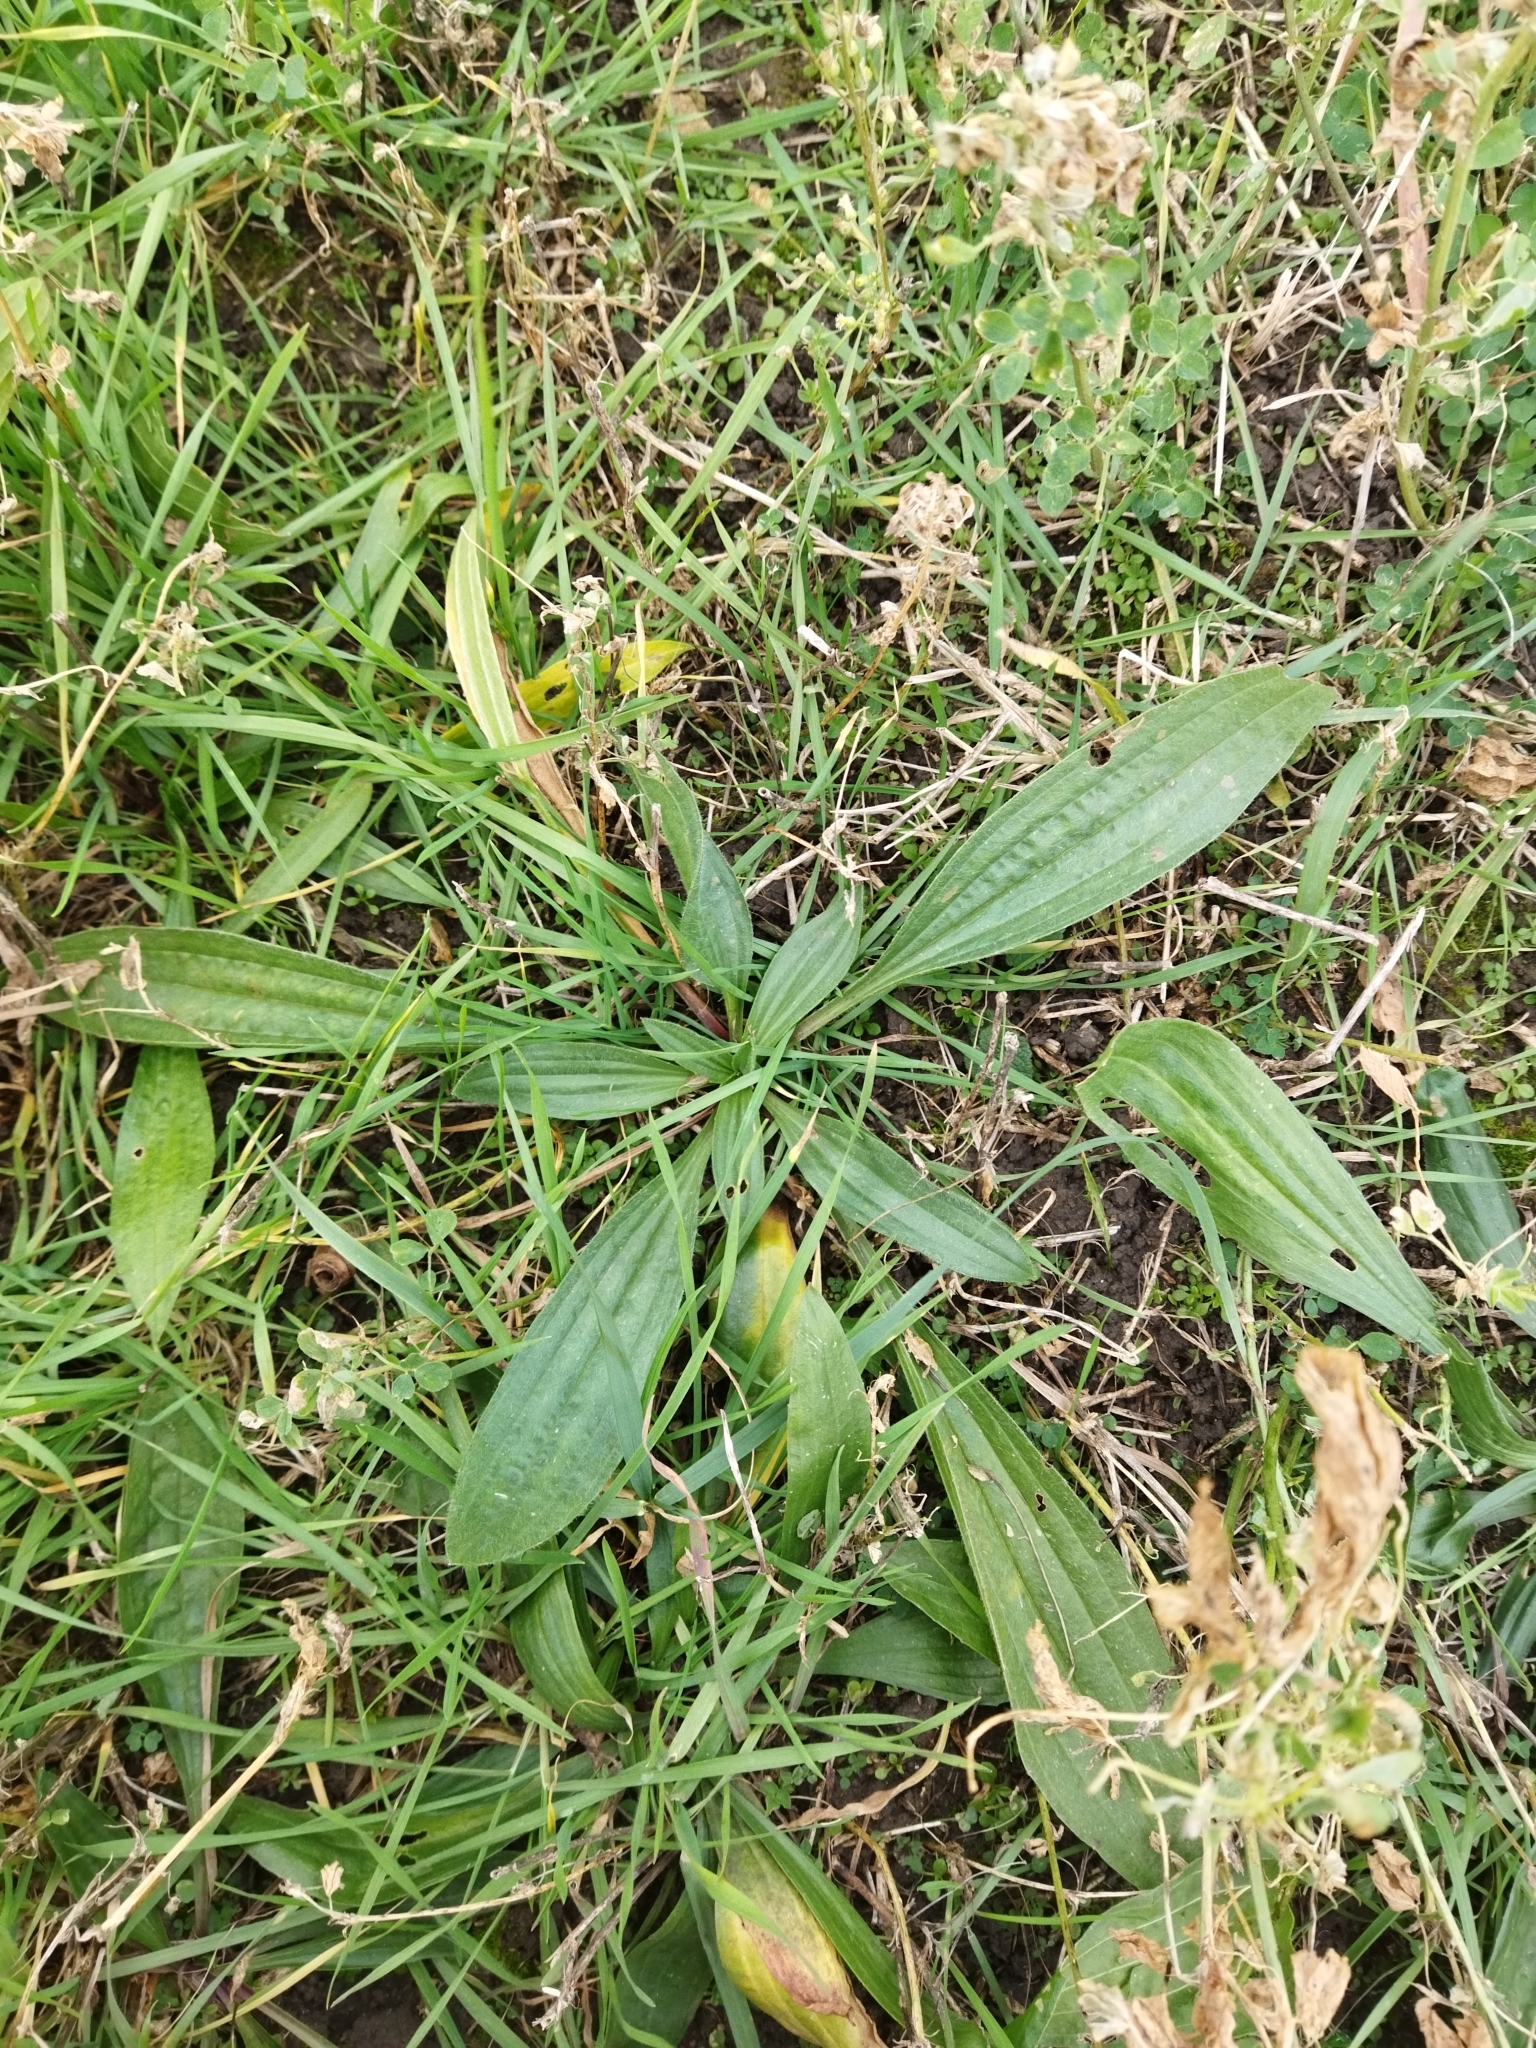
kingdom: Plantae
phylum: Tracheophyta
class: Magnoliopsida
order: Lamiales
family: Plantaginaceae
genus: Plantago
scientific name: Plantago lanceolata
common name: Ribwort plantain
